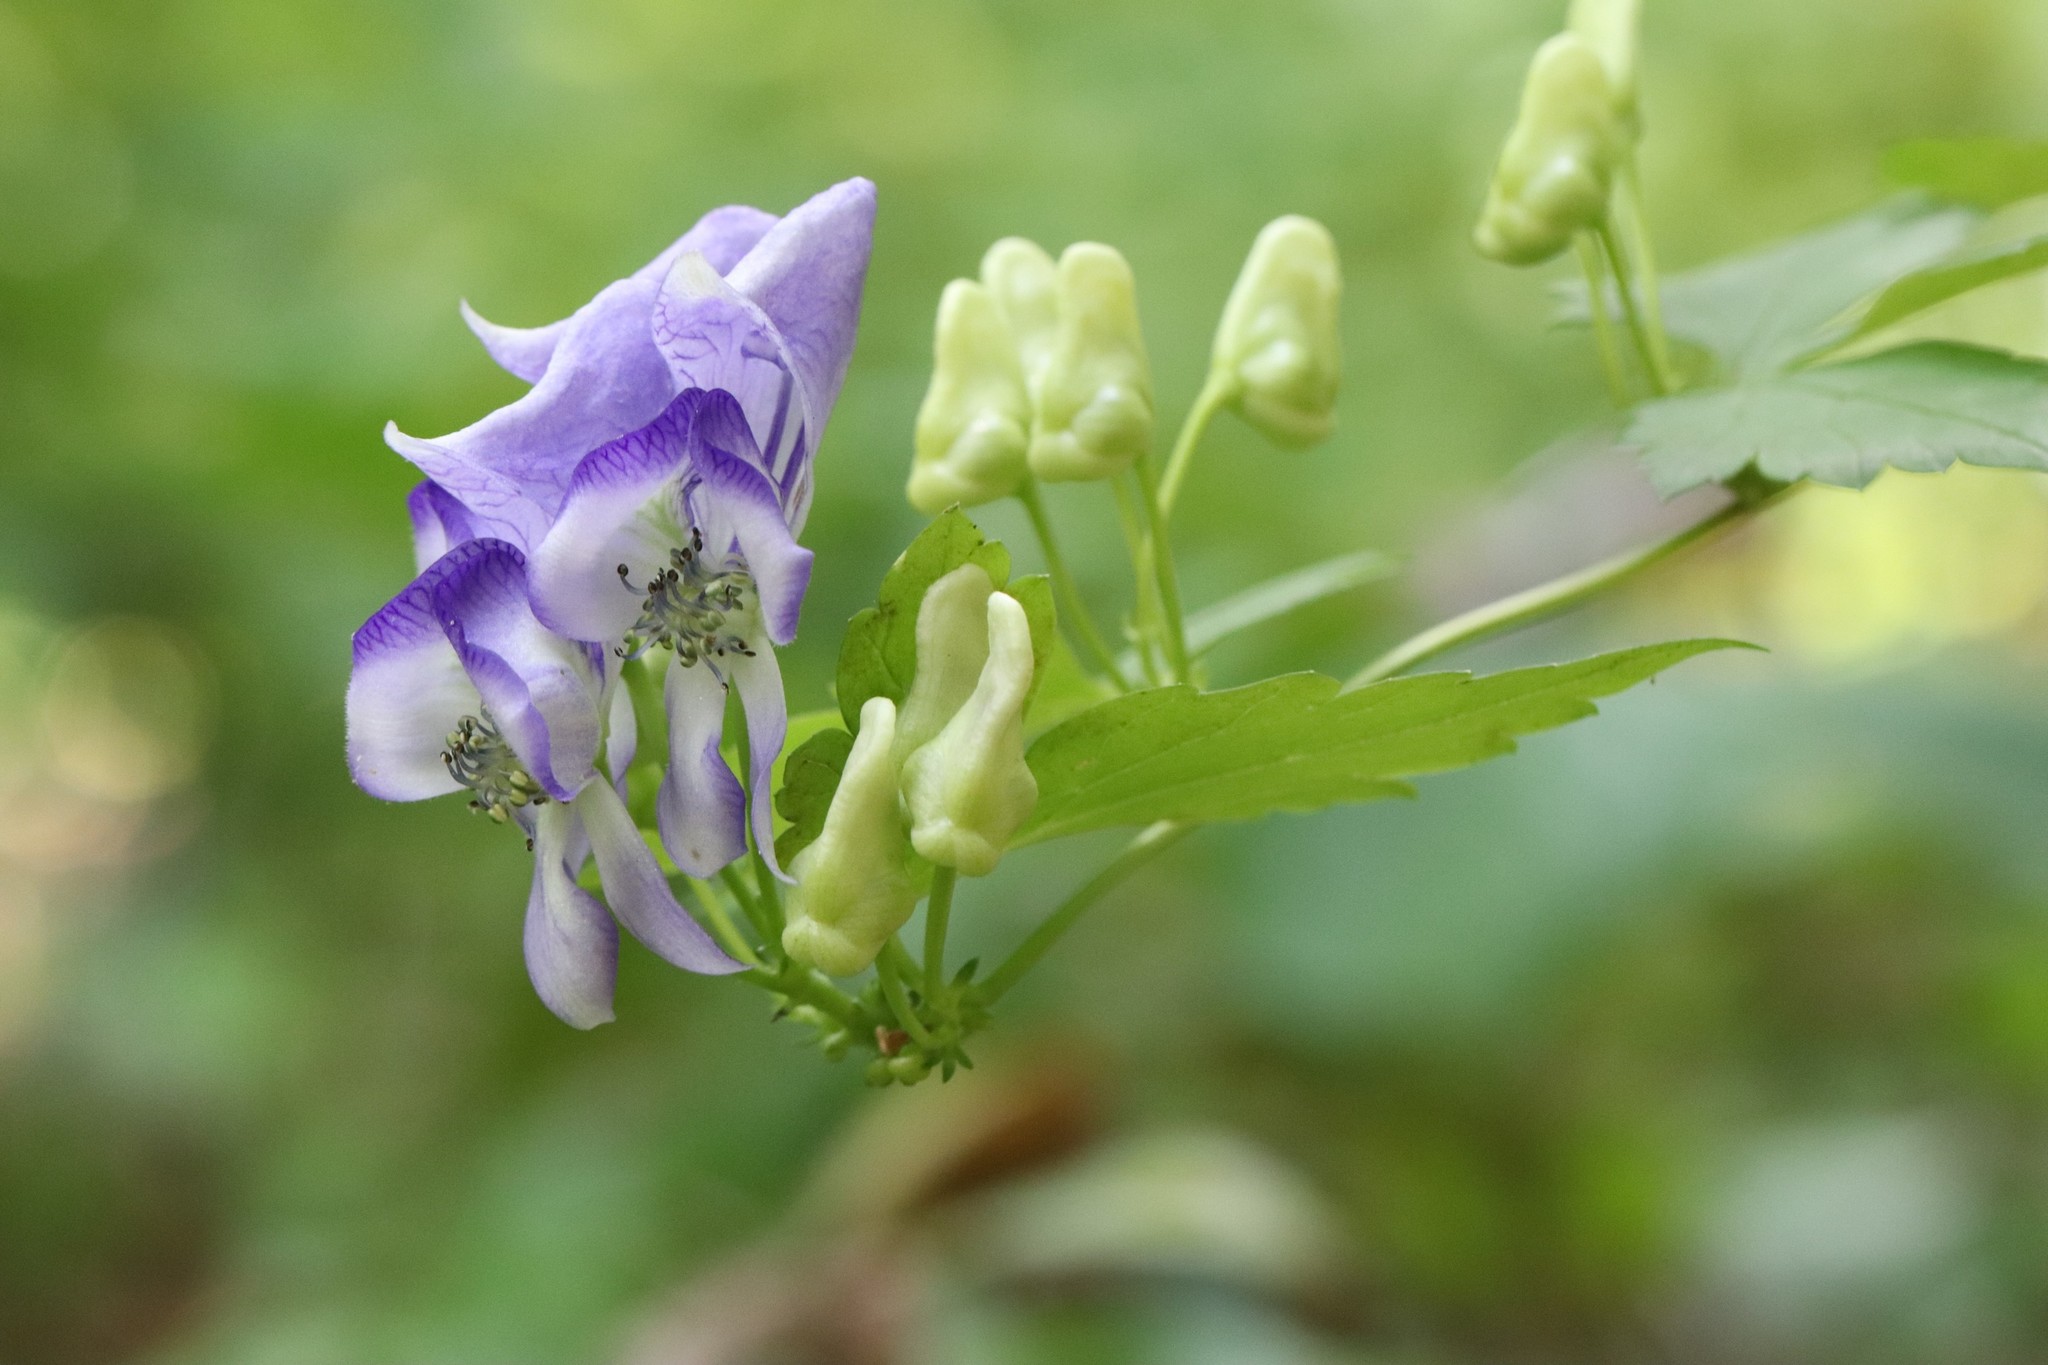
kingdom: Plantae
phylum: Tracheophyta
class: Magnoliopsida
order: Ranunculales
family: Ranunculaceae
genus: Aconitum
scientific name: Aconitum sczukinii
